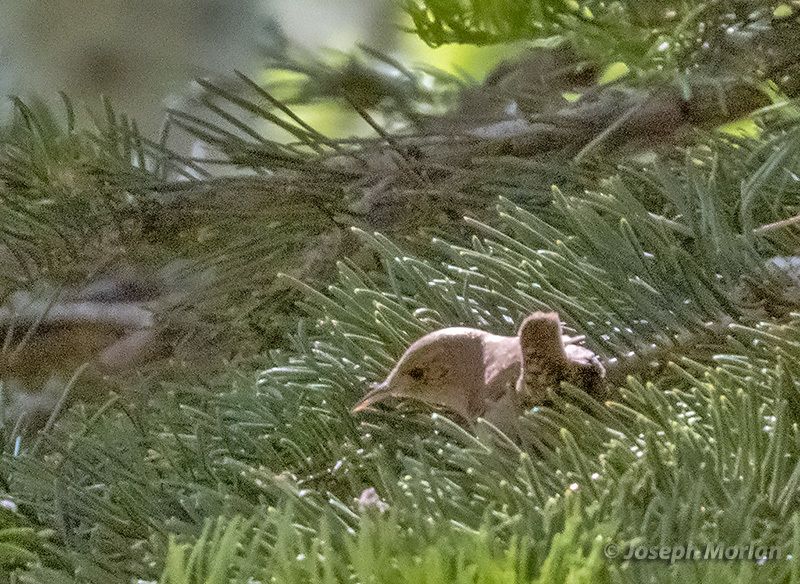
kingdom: Animalia
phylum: Chordata
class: Aves
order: Passeriformes
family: Troglodytidae
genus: Troglodytes
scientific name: Troglodytes aedon
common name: House wren
